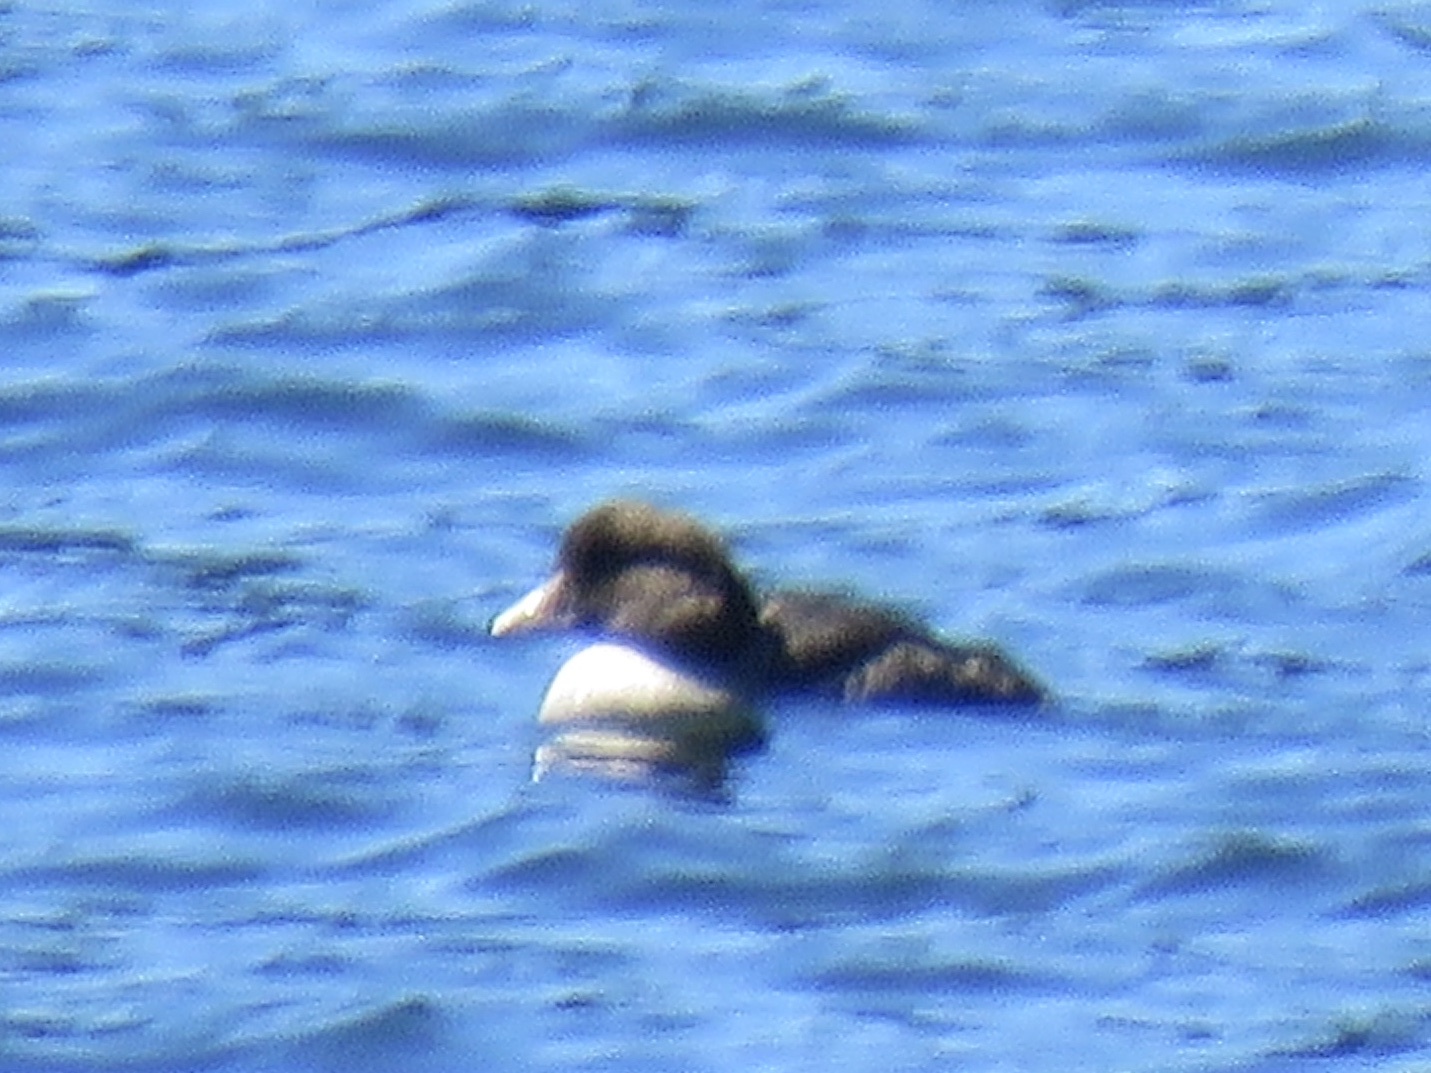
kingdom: Animalia
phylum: Chordata
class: Aves
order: Anseriformes
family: Anatidae
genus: Bucephala
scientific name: Bucephala islandica
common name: Barrow's goldeneye
